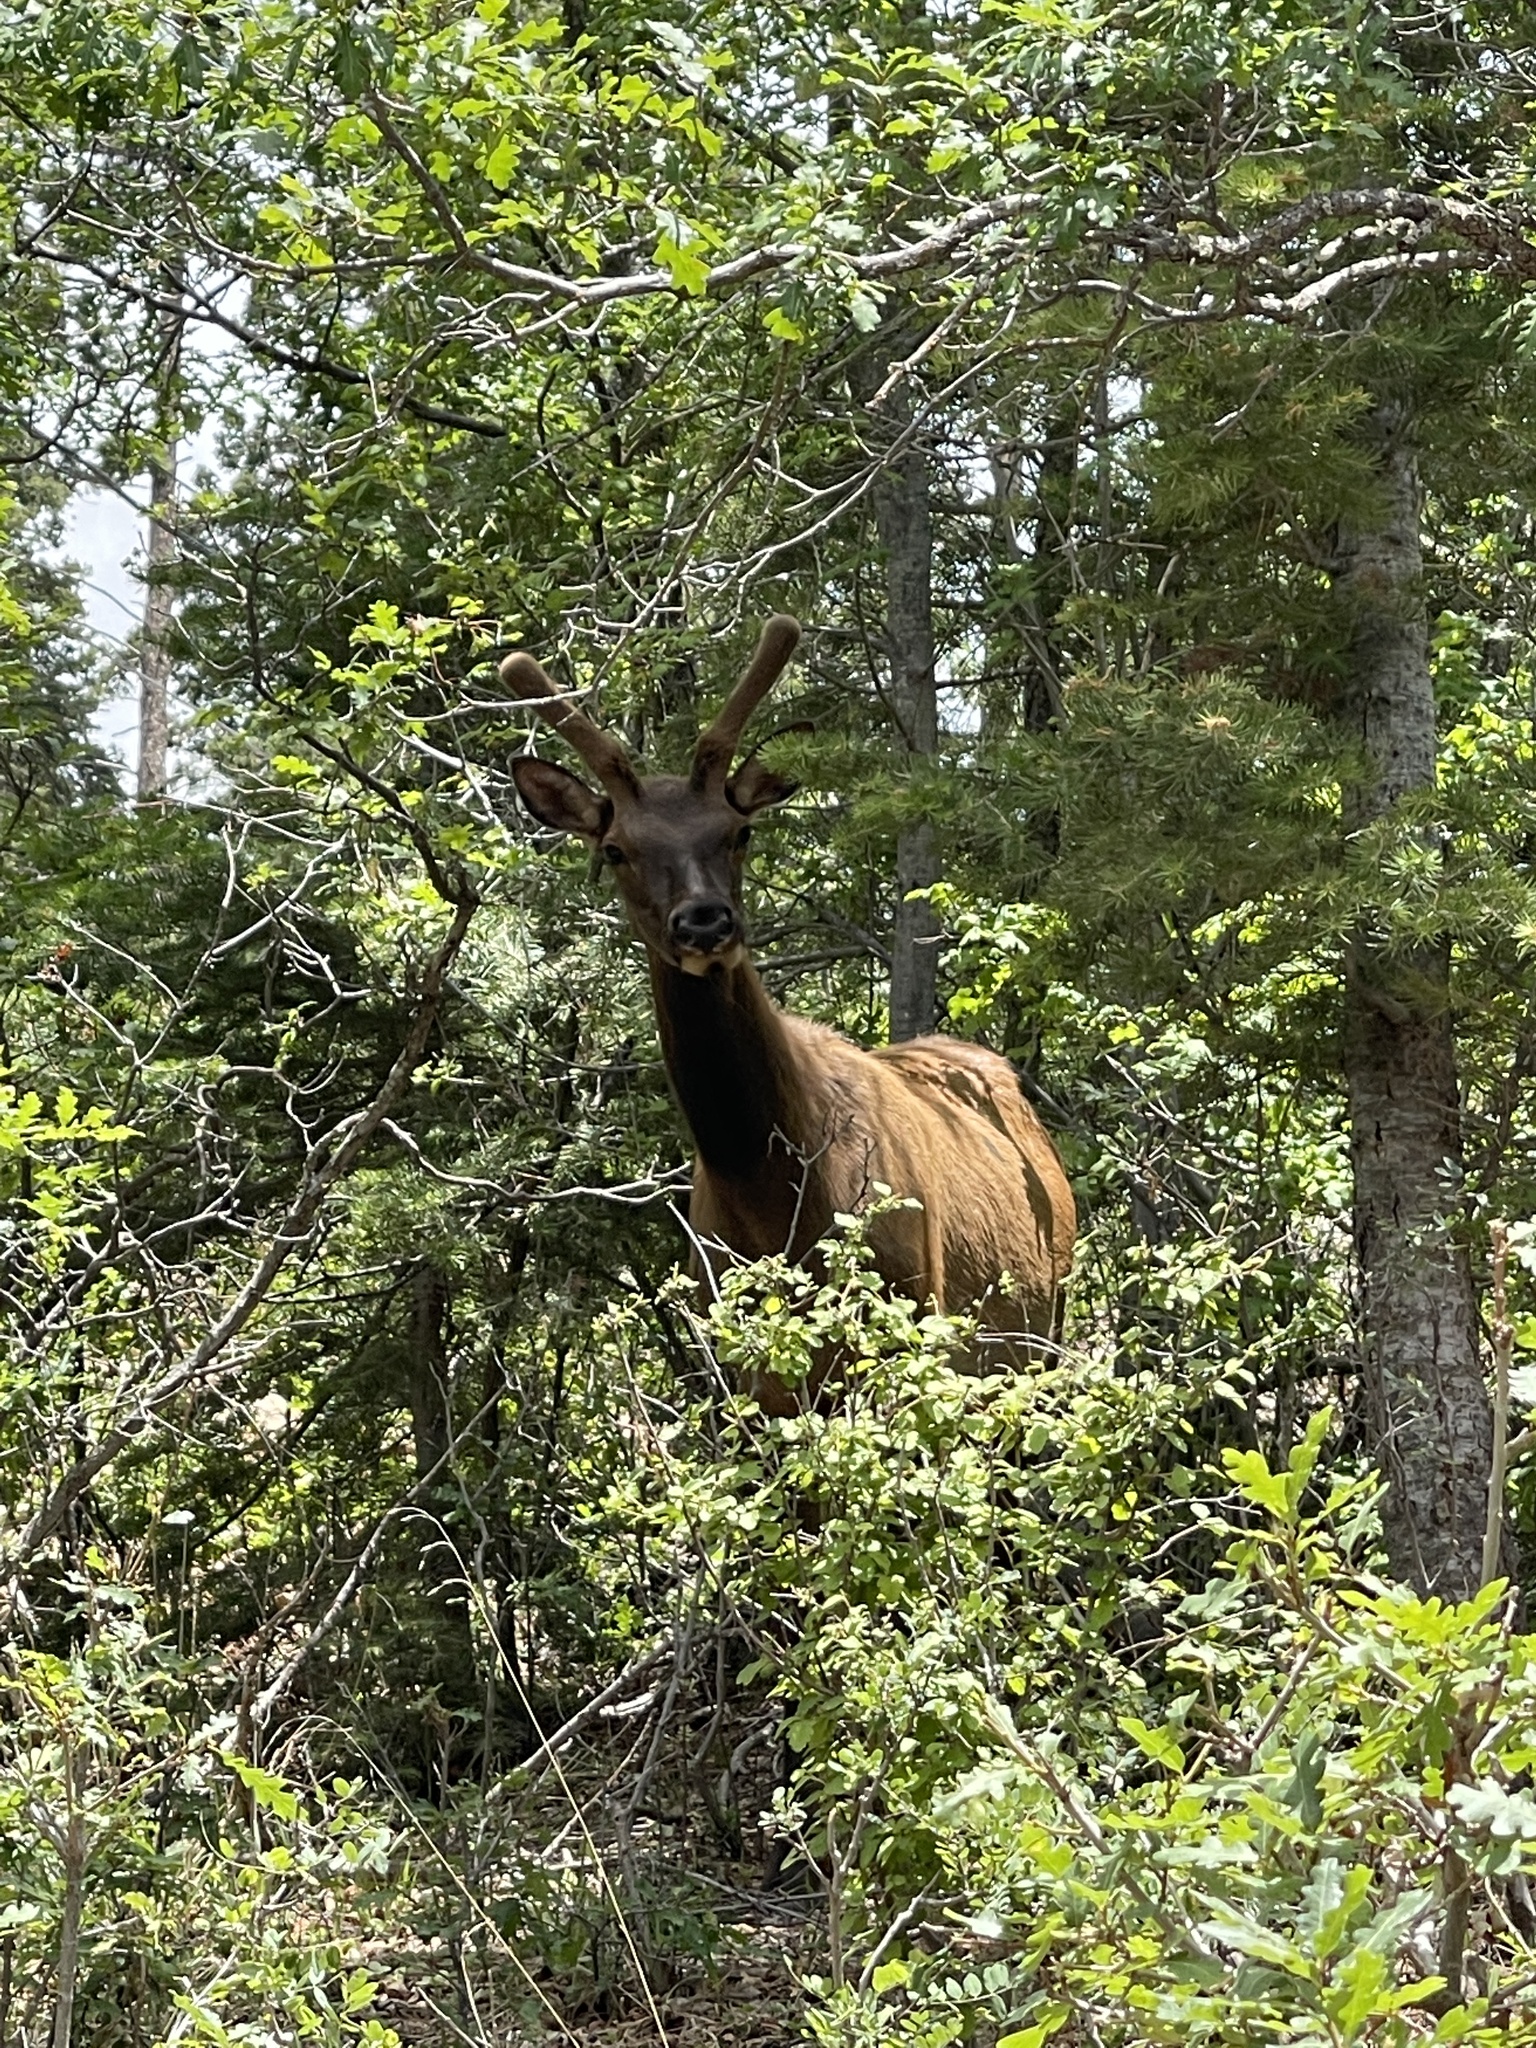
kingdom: Animalia
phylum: Chordata
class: Mammalia
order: Artiodactyla
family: Cervidae
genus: Cervus
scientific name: Cervus elaphus
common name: Red deer
